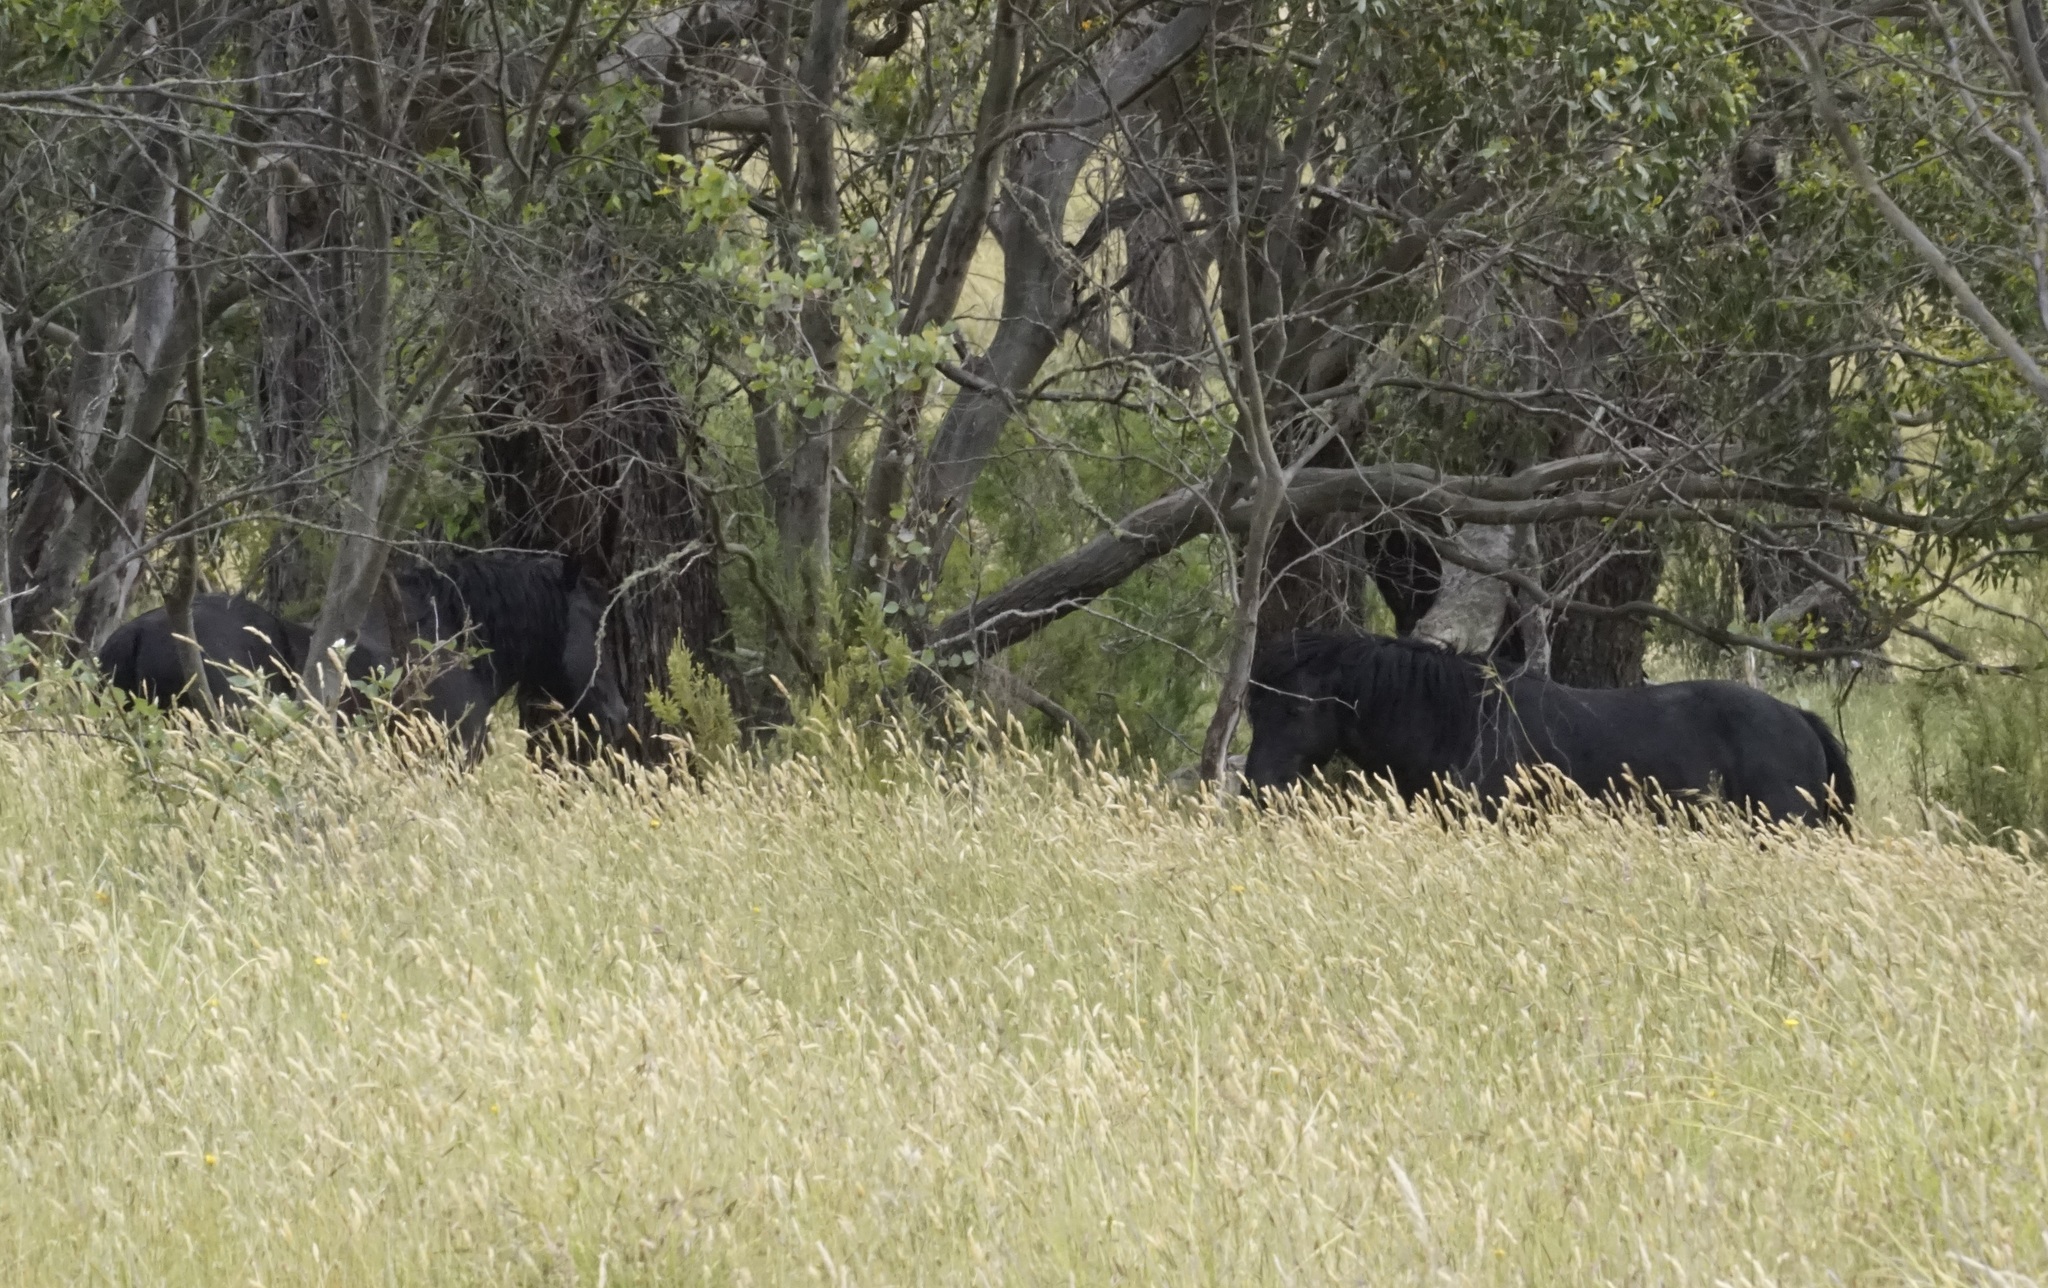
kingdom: Animalia
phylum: Chordata
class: Mammalia
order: Perissodactyla
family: Equidae
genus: Equus
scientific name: Equus caballus
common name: Horse
